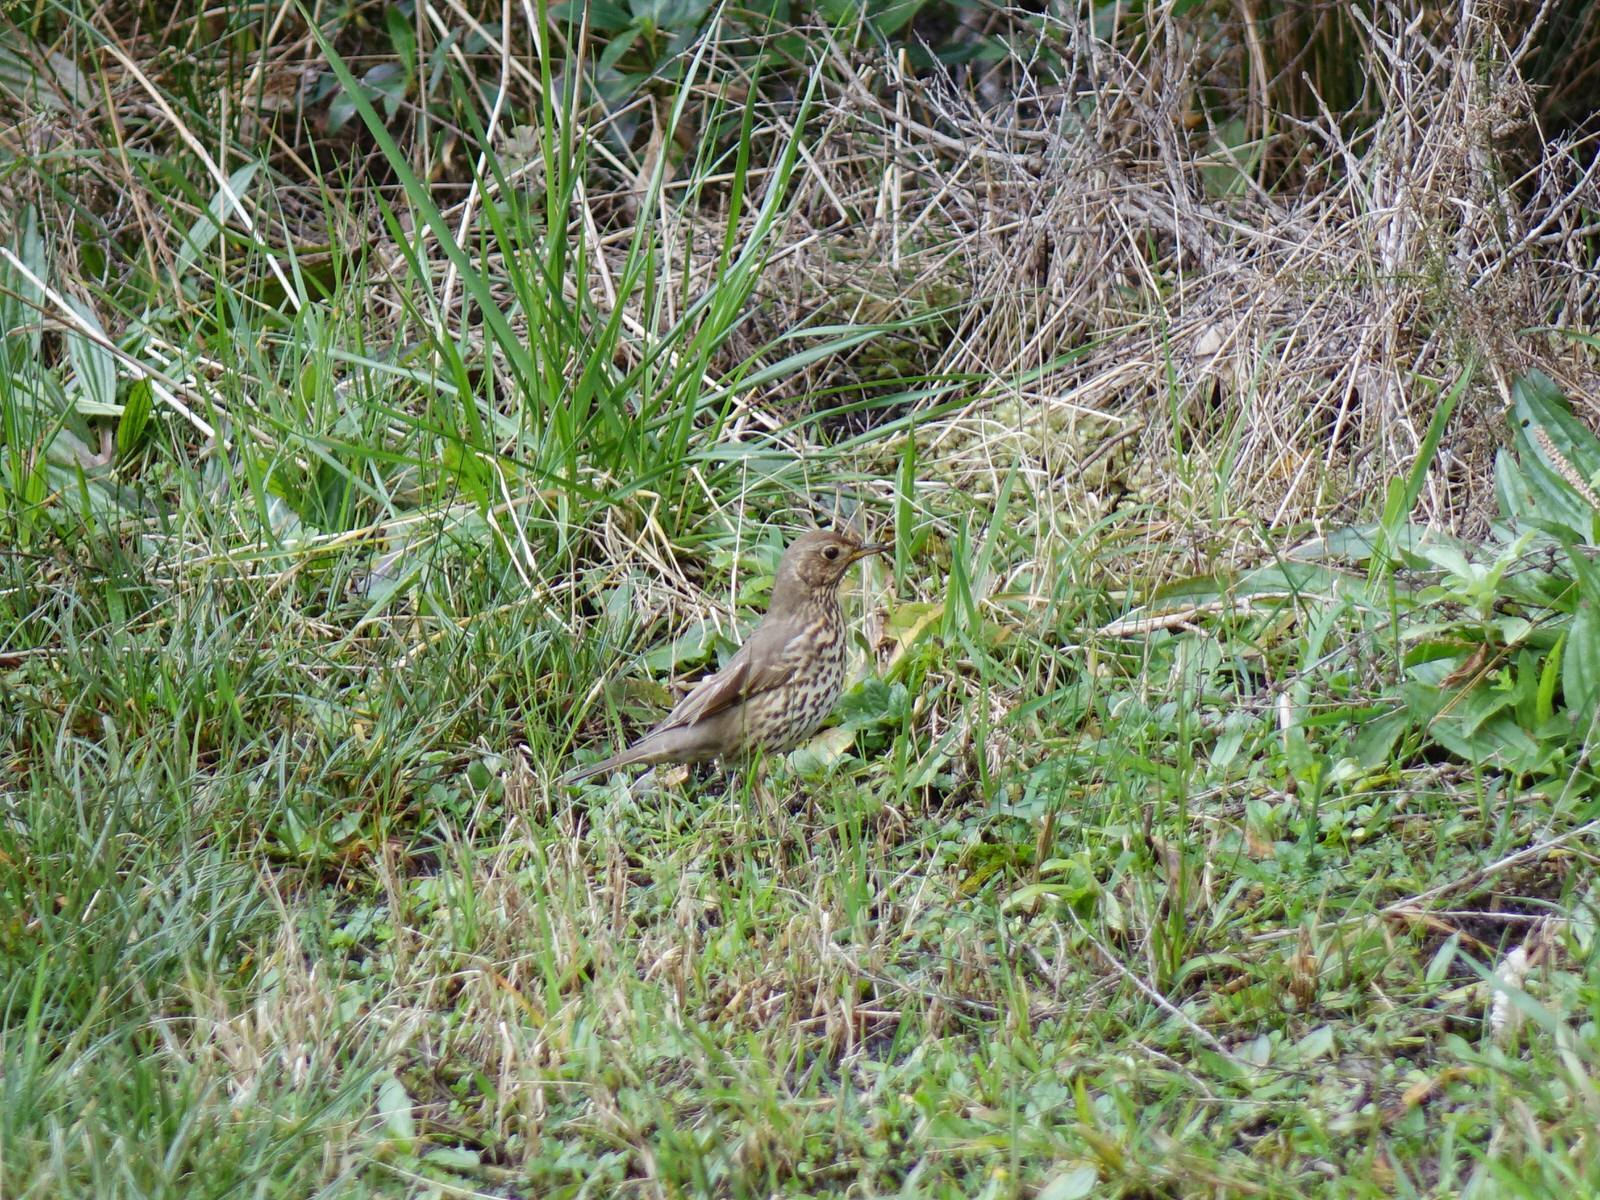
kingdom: Animalia
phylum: Chordata
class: Aves
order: Passeriformes
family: Turdidae
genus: Turdus
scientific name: Turdus philomelos
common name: Song thrush
